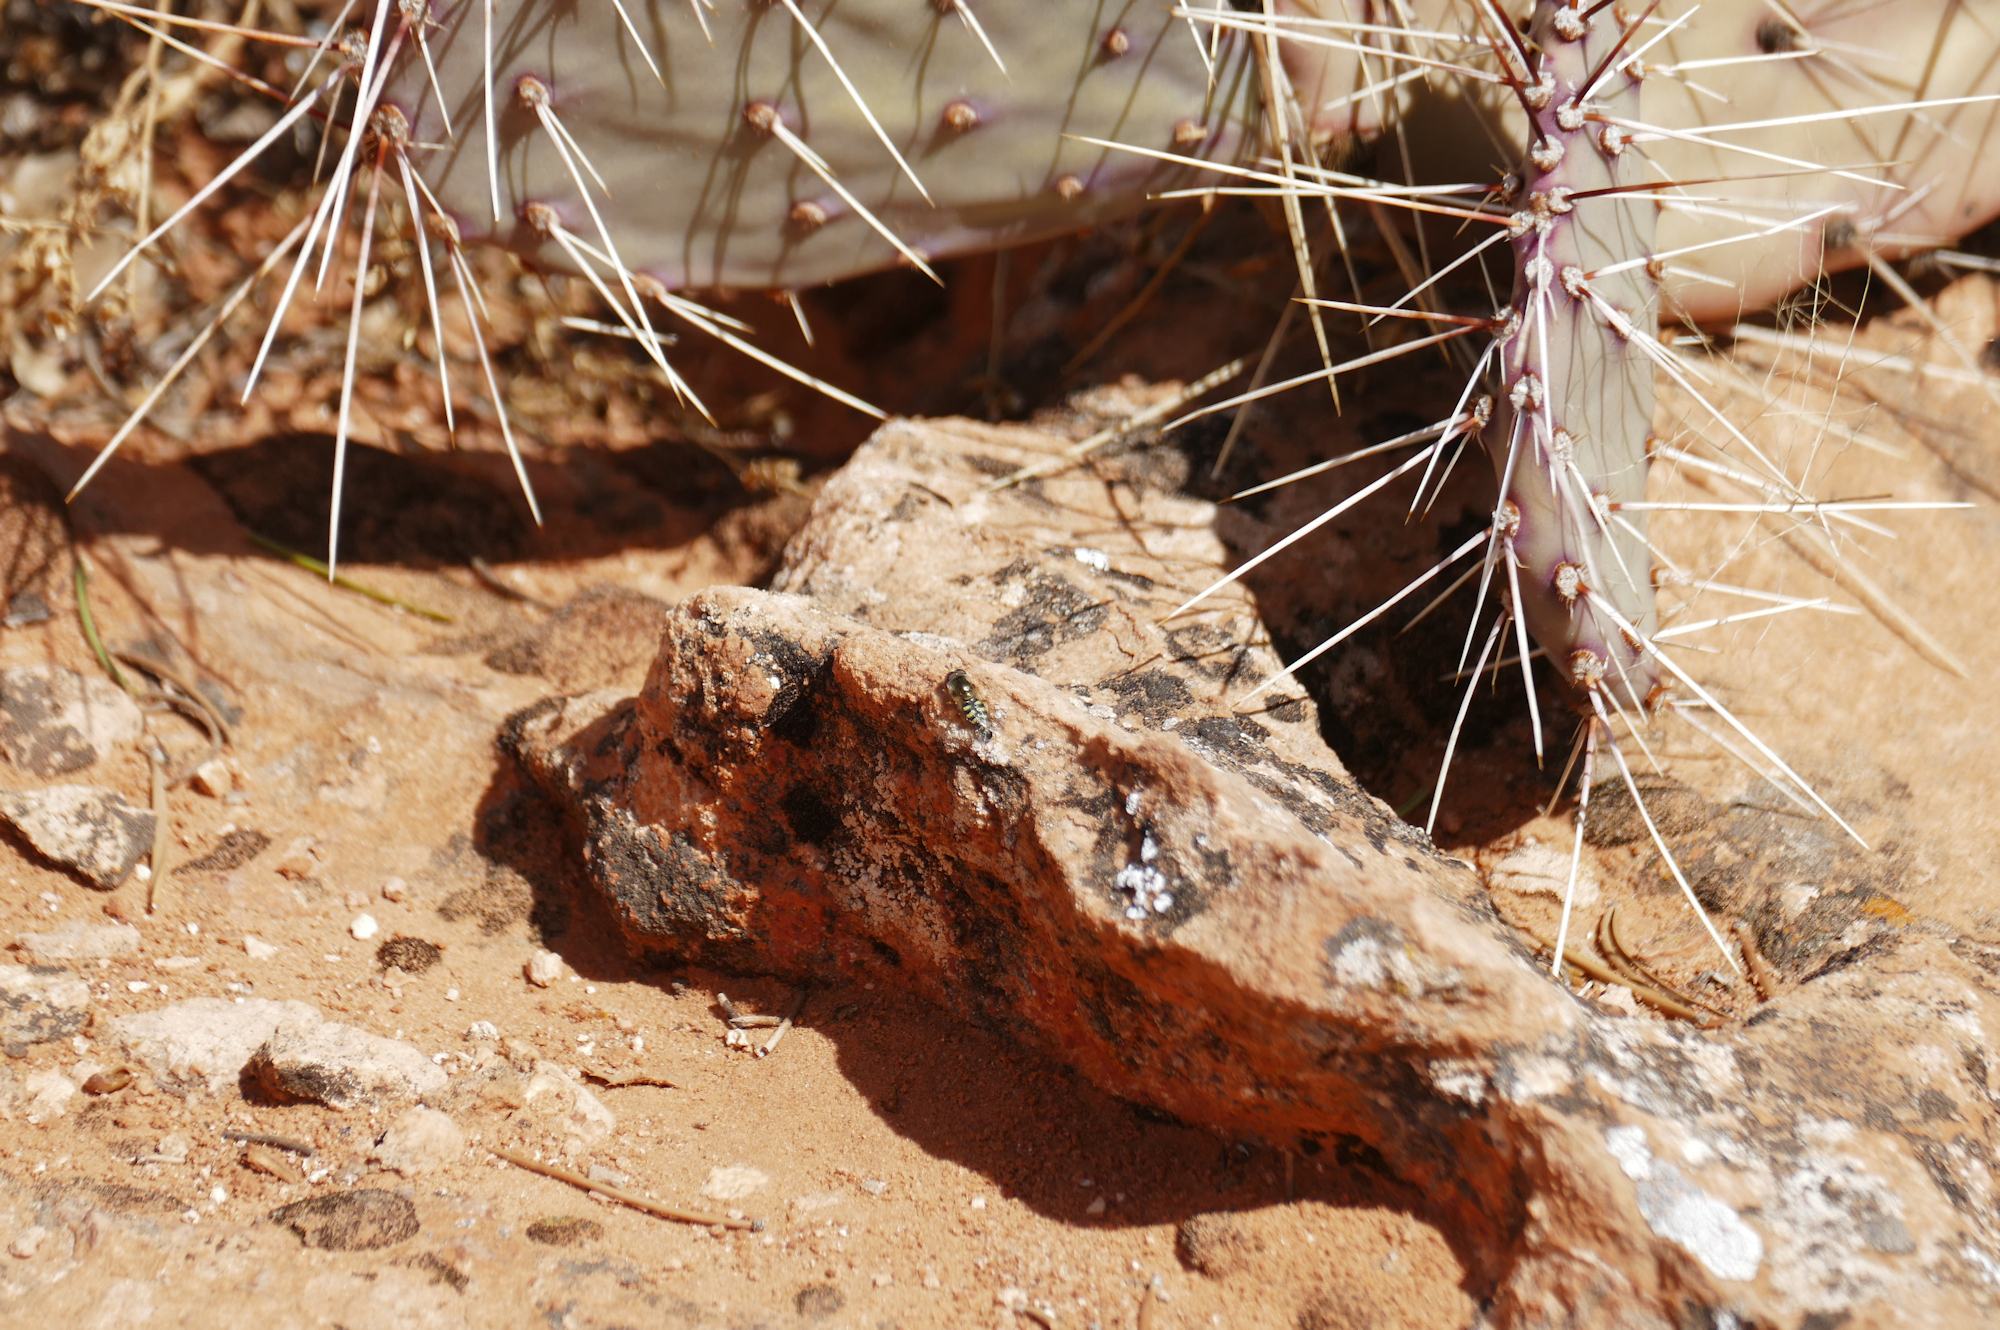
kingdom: Plantae
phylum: Tracheophyta
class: Magnoliopsida
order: Caryophyllales
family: Cactaceae
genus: Opuntia
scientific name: Opuntia phaeacantha
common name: New mexico prickly-pear
